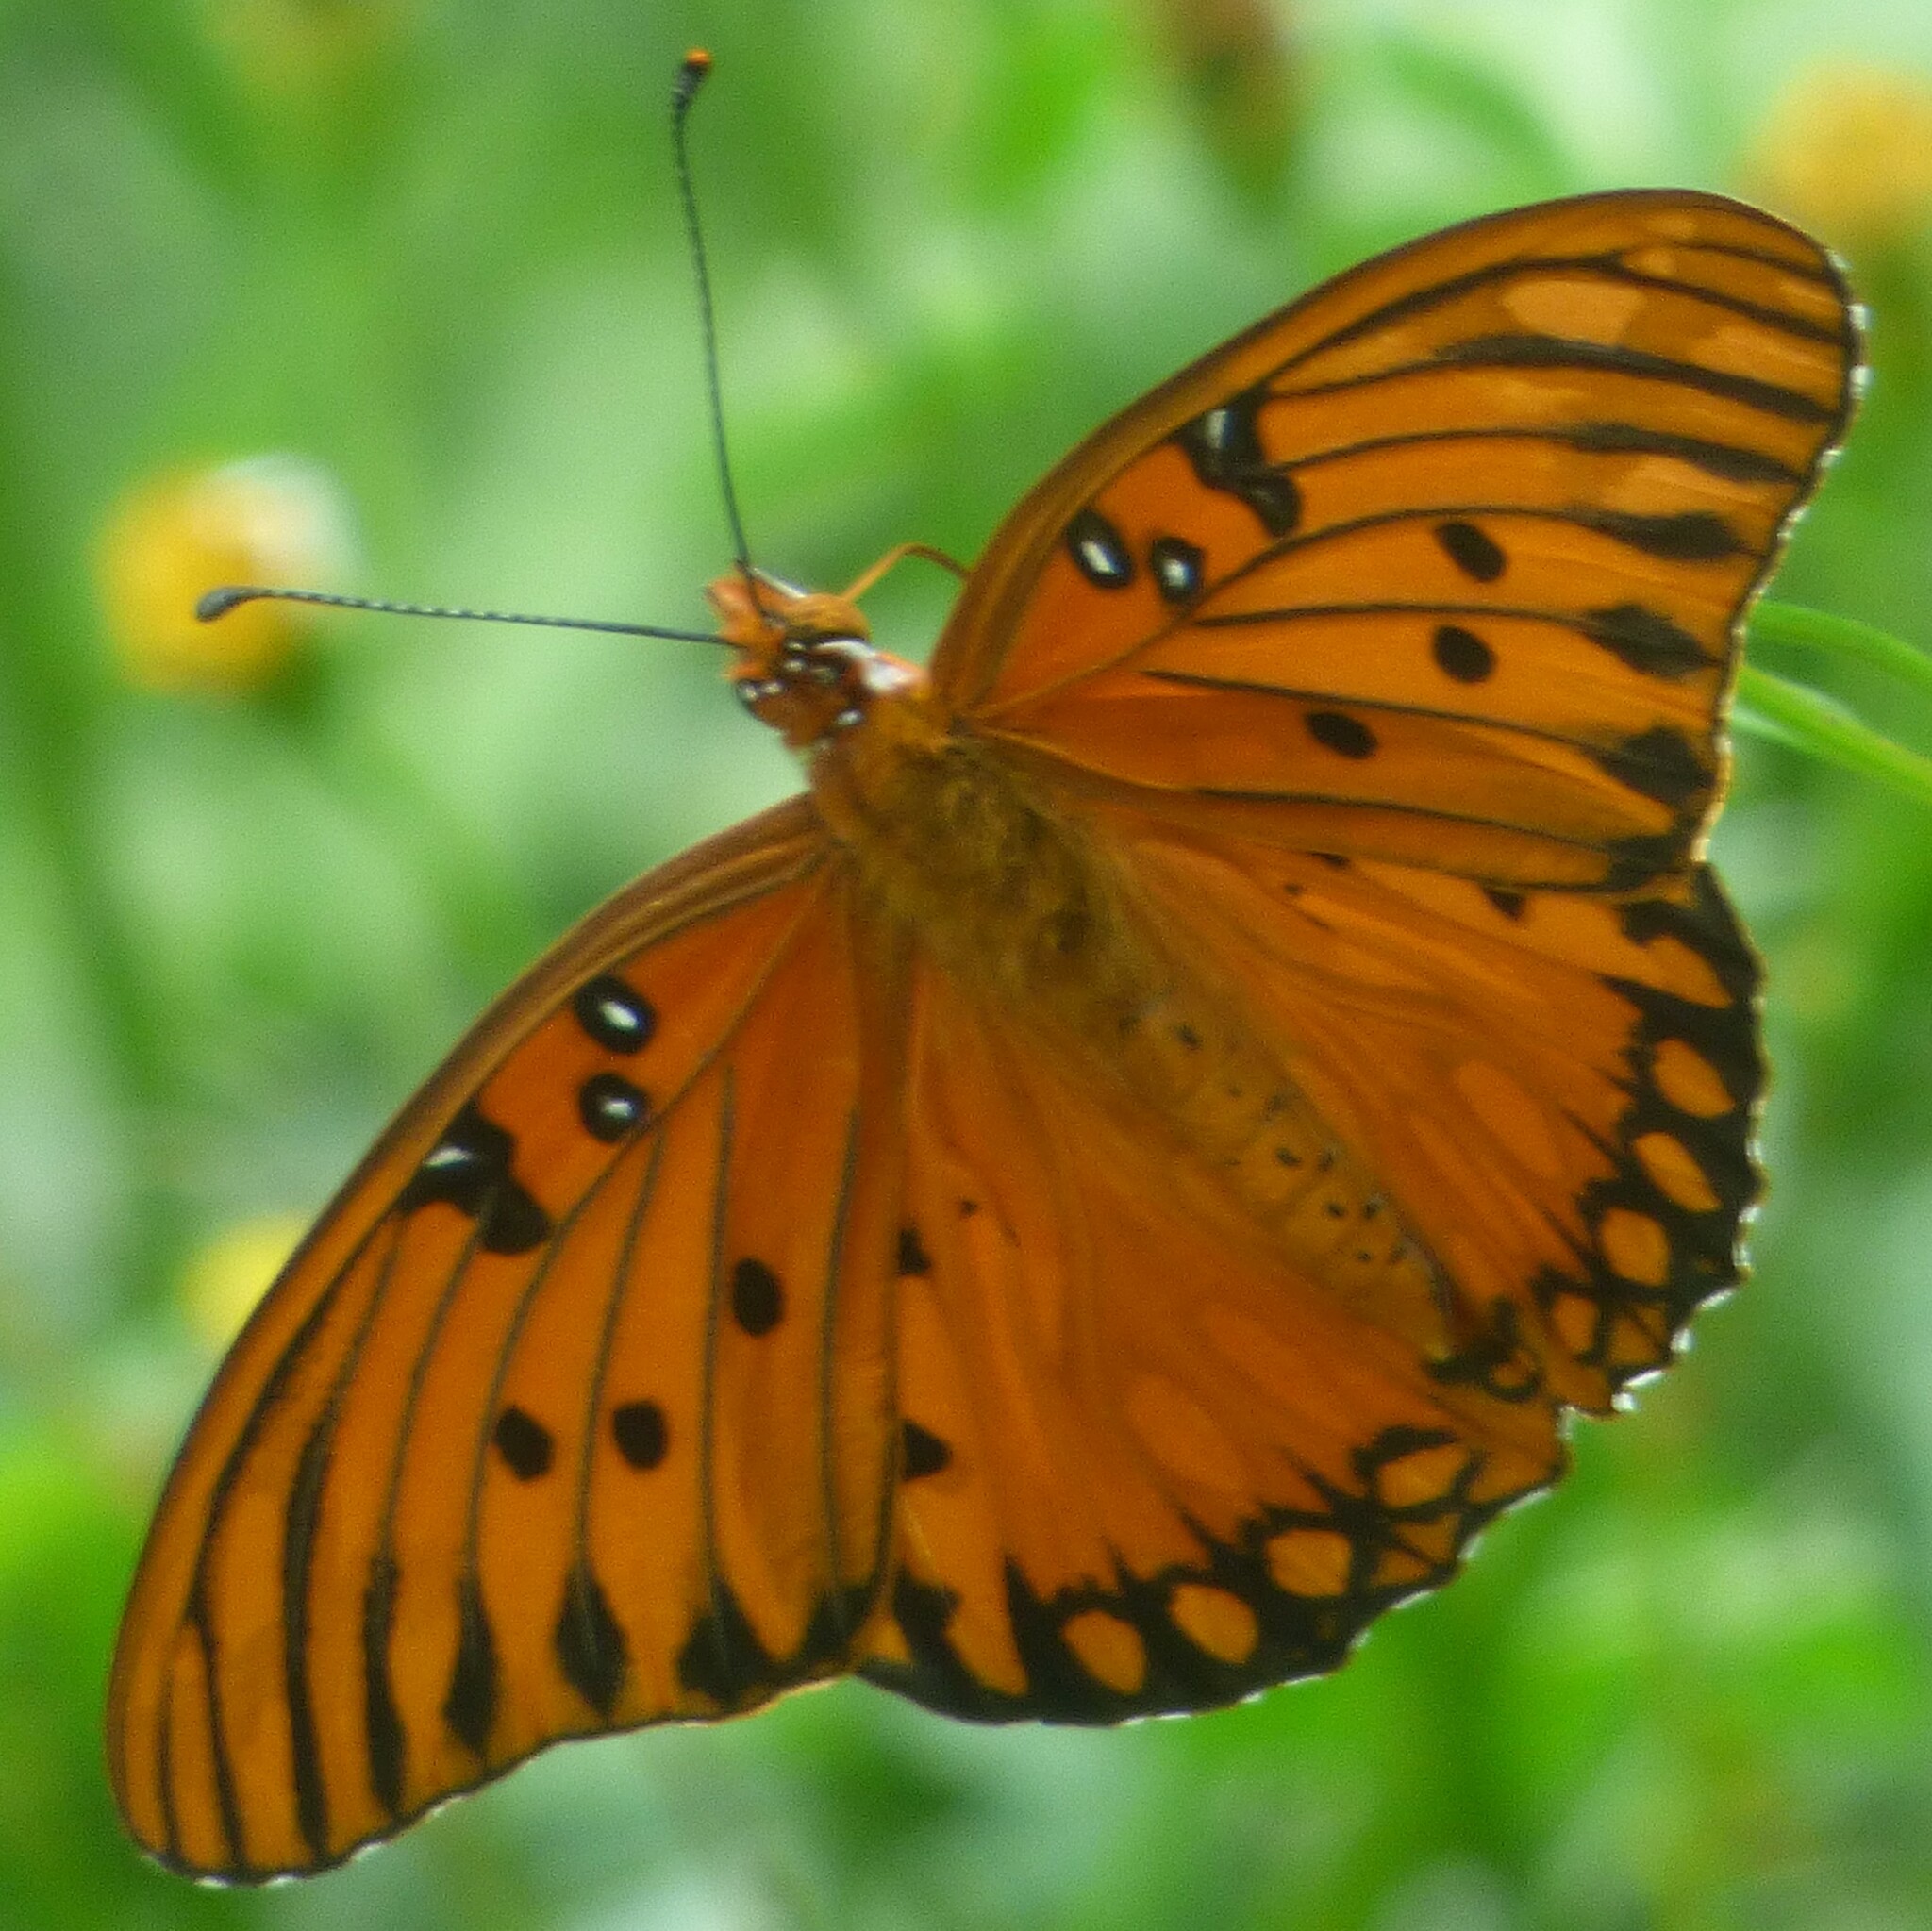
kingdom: Animalia
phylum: Arthropoda
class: Insecta
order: Lepidoptera
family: Nymphalidae
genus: Dione
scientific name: Dione vanillae
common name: Gulf fritillary
